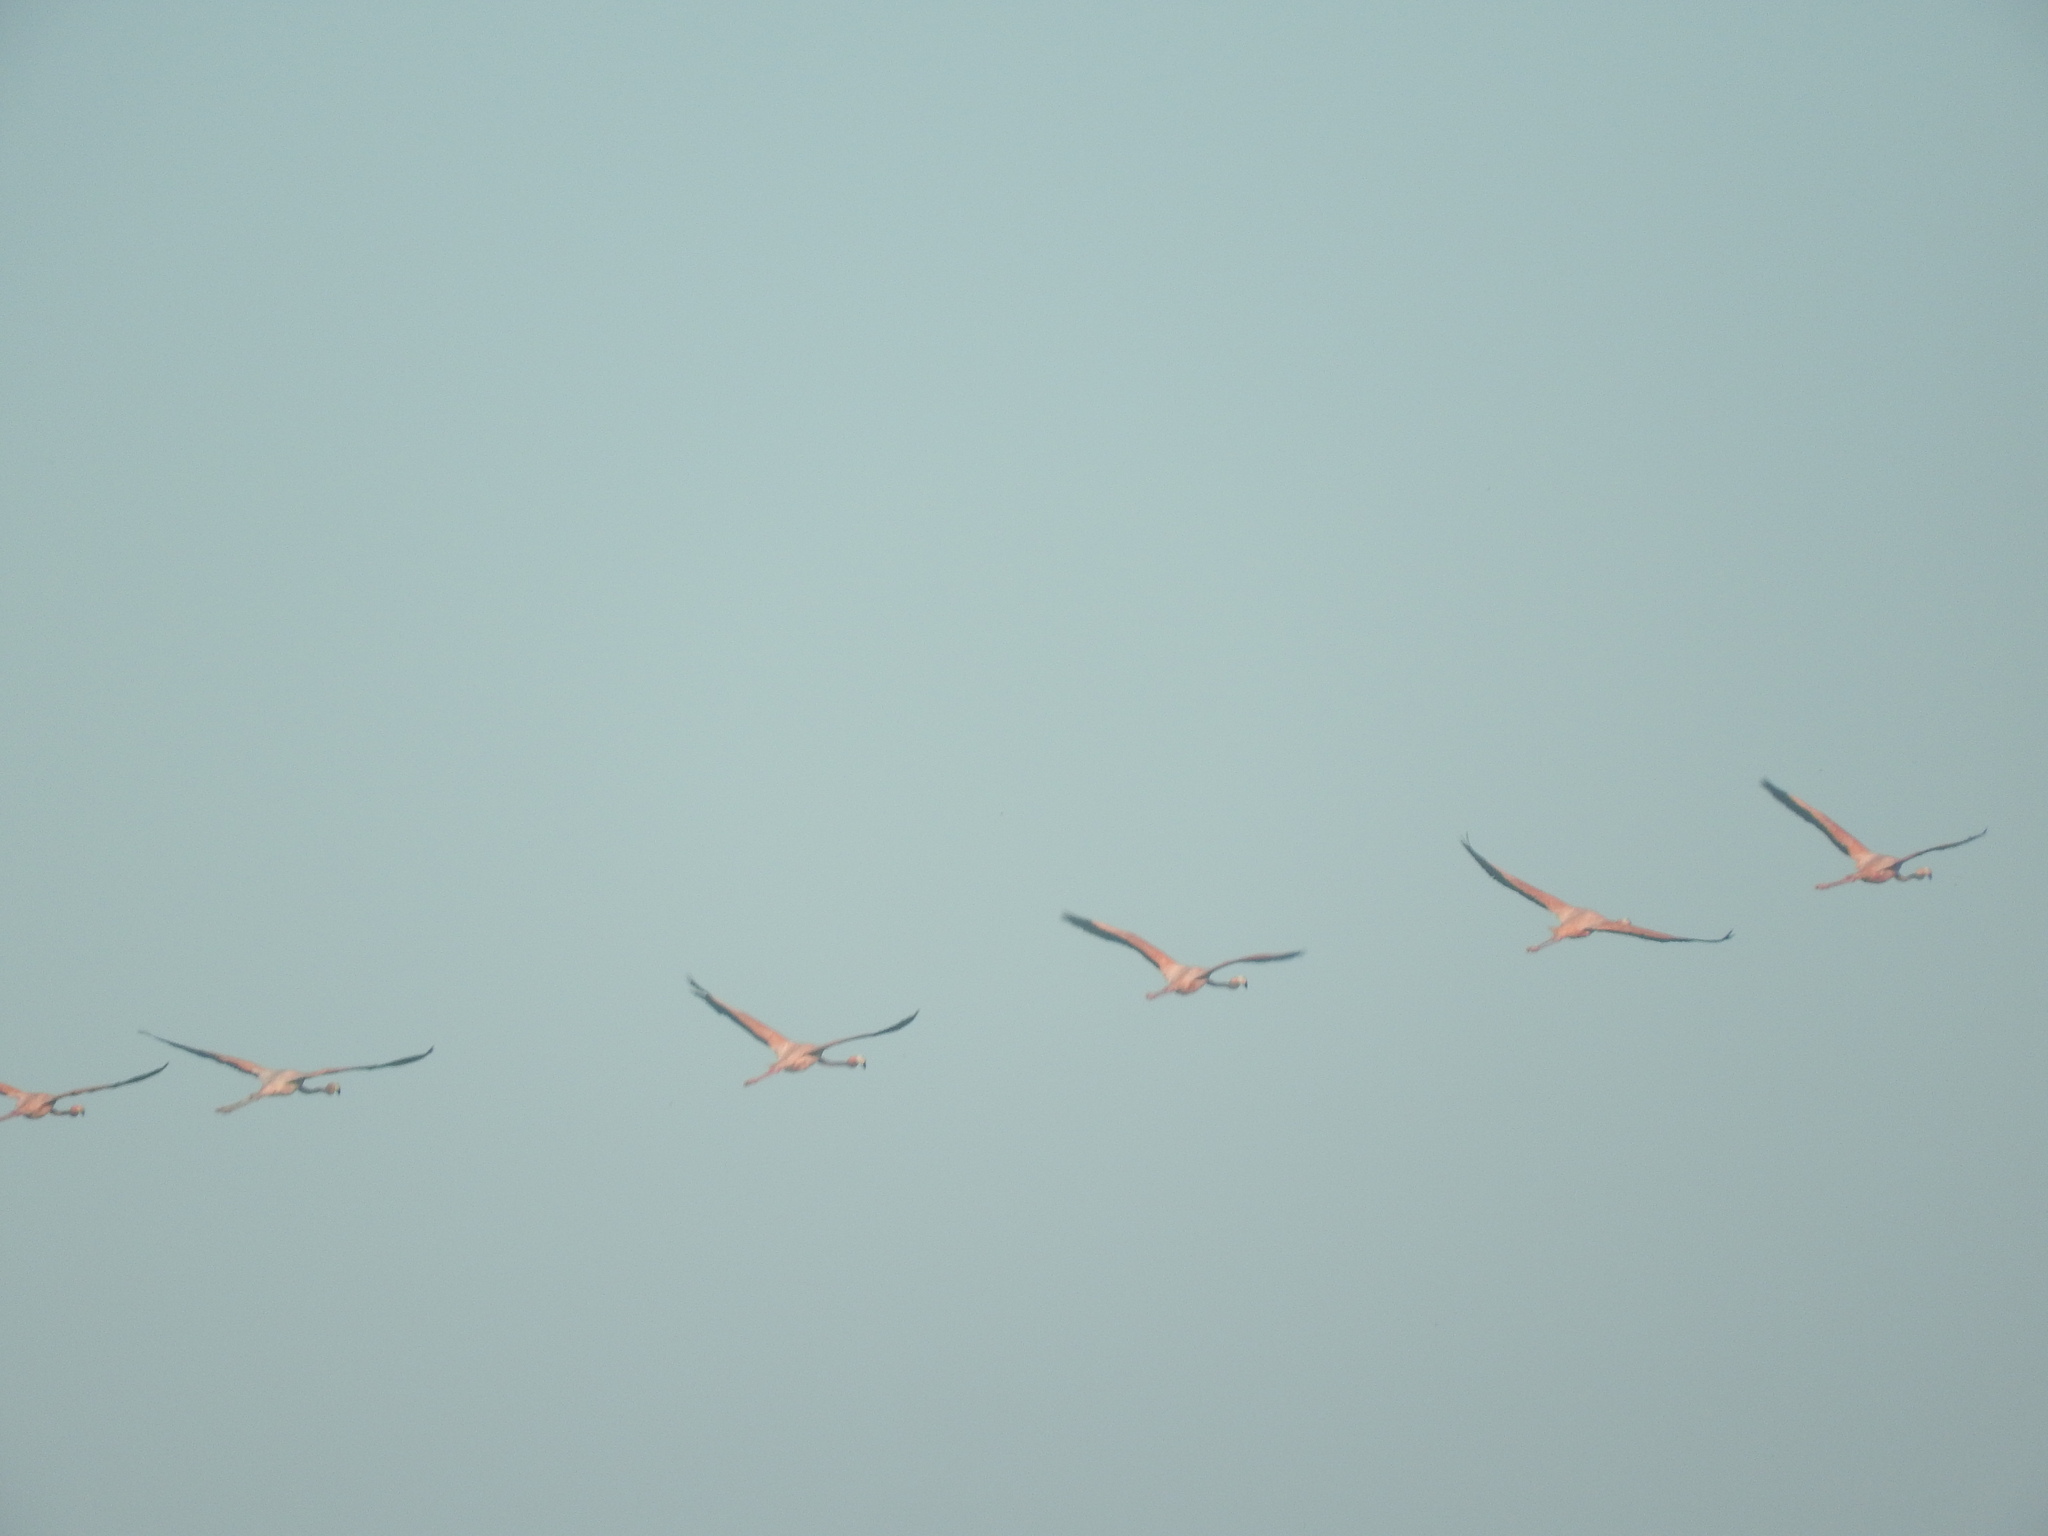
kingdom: Animalia
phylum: Chordata
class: Aves
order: Phoenicopteriformes
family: Phoenicopteridae
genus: Phoenicopterus
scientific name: Phoenicopterus ruber
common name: American flamingo
